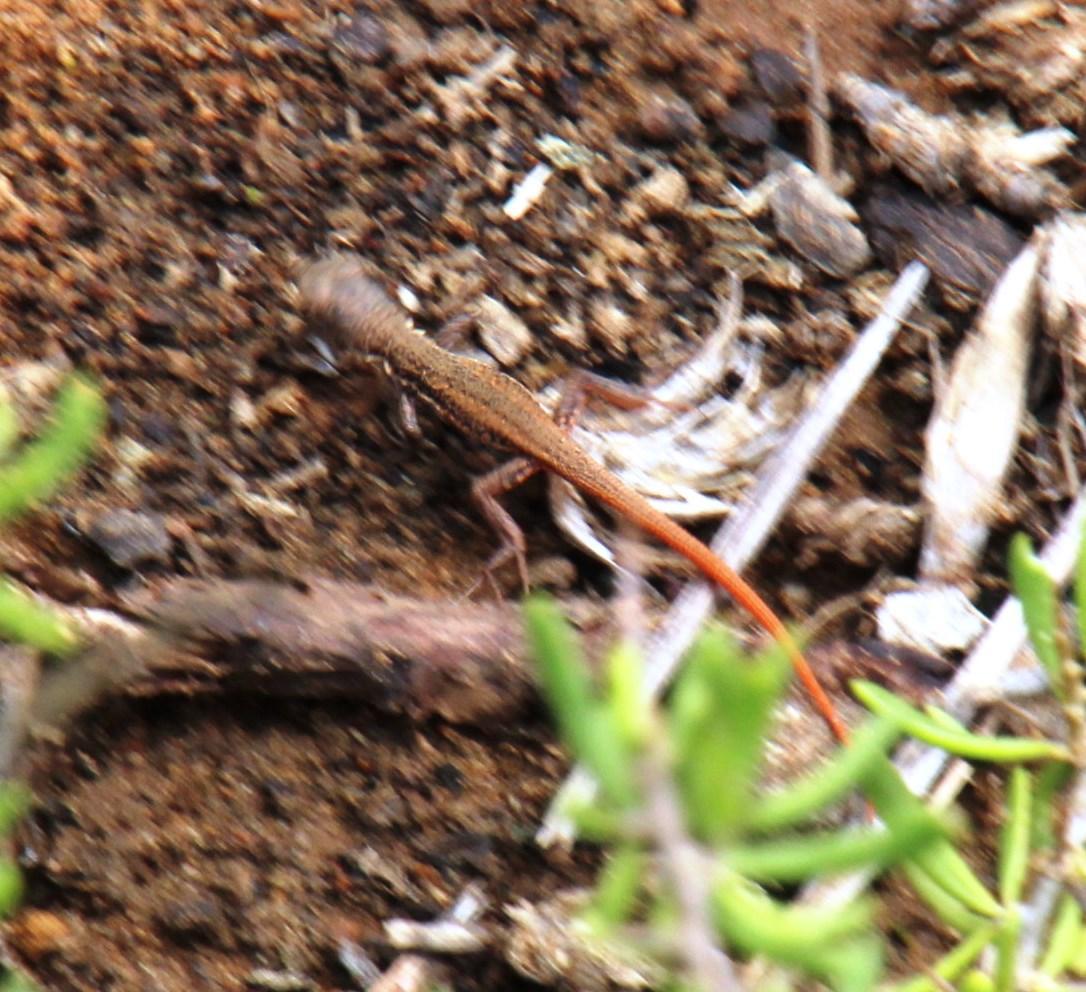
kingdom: Animalia
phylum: Chordata
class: Squamata
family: Lacertidae
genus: Pedioplanis
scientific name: Pedioplanis lineoocellata
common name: Spotted sand lizard
